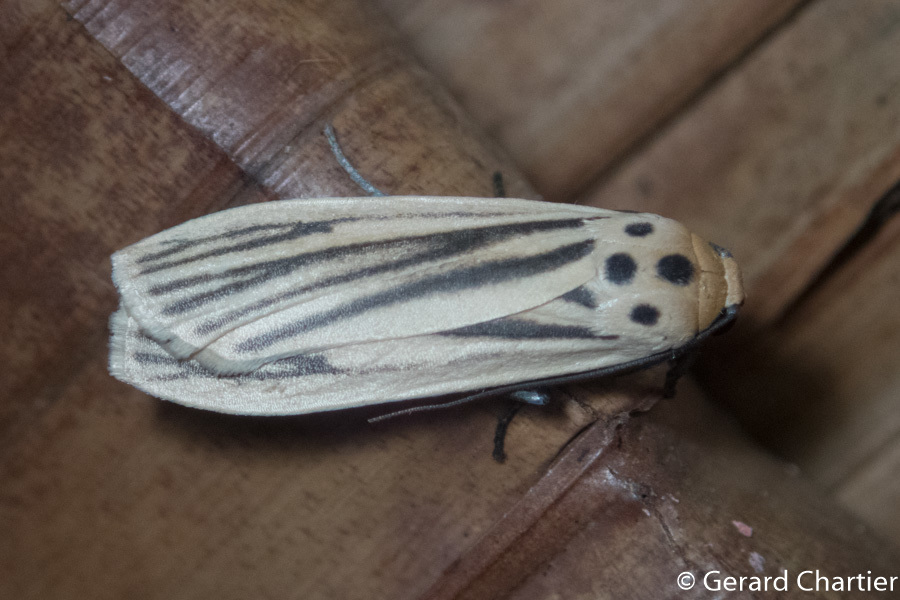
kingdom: Animalia
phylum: Arthropoda
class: Insecta
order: Lepidoptera
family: Erebidae
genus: Tigrioides
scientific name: Tigrioides leucanioides
